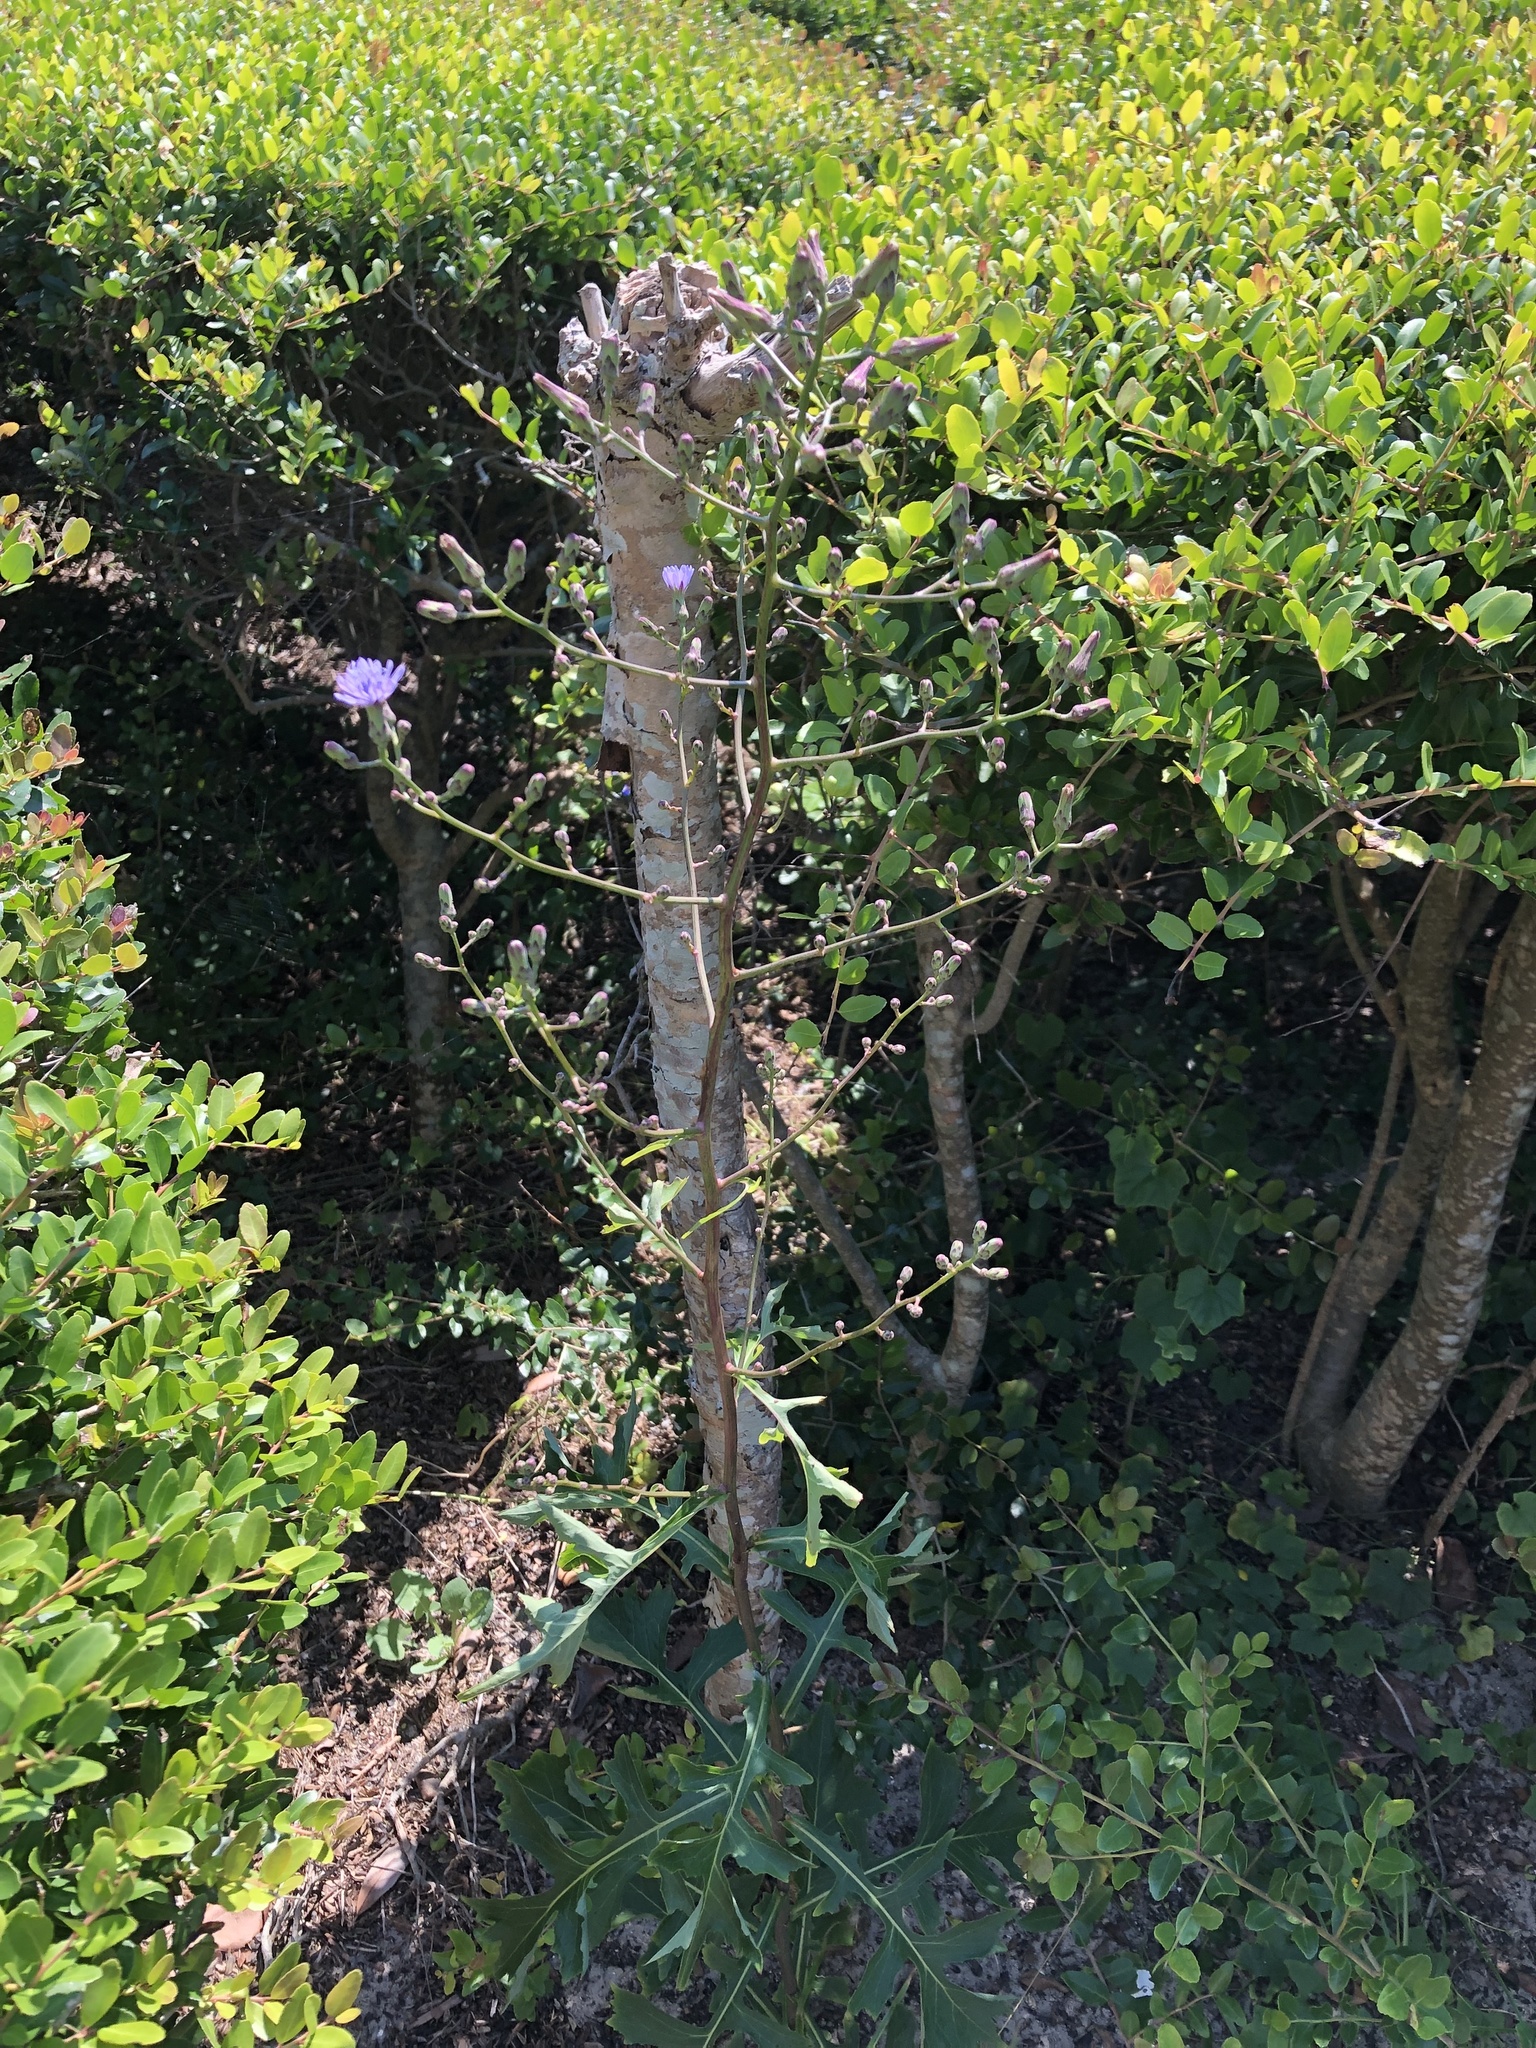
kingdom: Plantae
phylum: Tracheophyta
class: Magnoliopsida
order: Asterales
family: Asteraceae
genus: Lactuca
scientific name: Lactuca floridana
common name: Woodland lettuce
